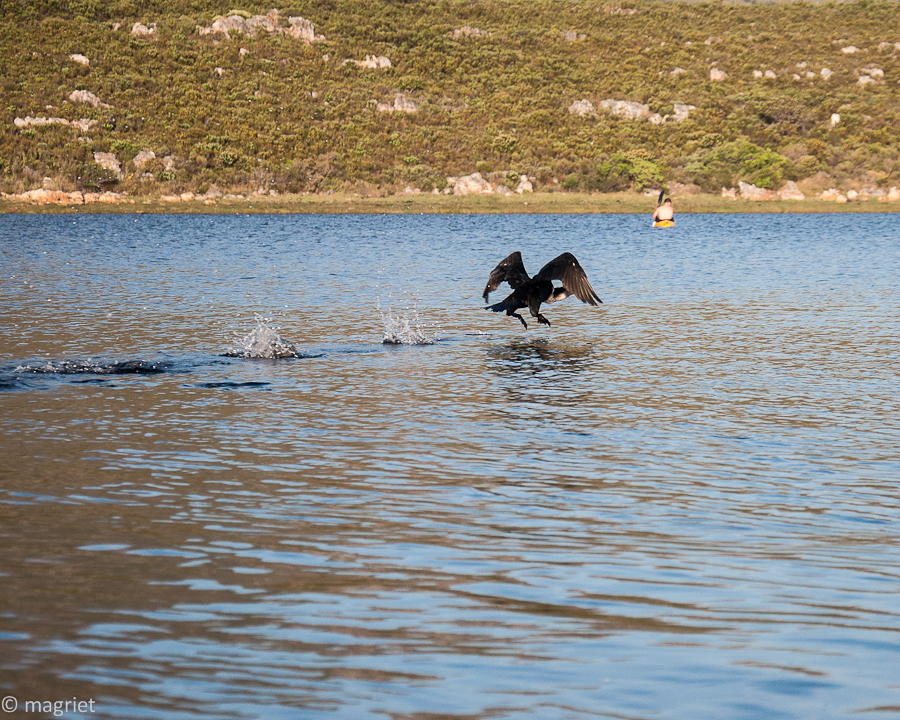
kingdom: Animalia
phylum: Chordata
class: Aves
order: Suliformes
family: Phalacrocoracidae
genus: Phalacrocorax
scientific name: Phalacrocorax carbo
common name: Great cormorant
